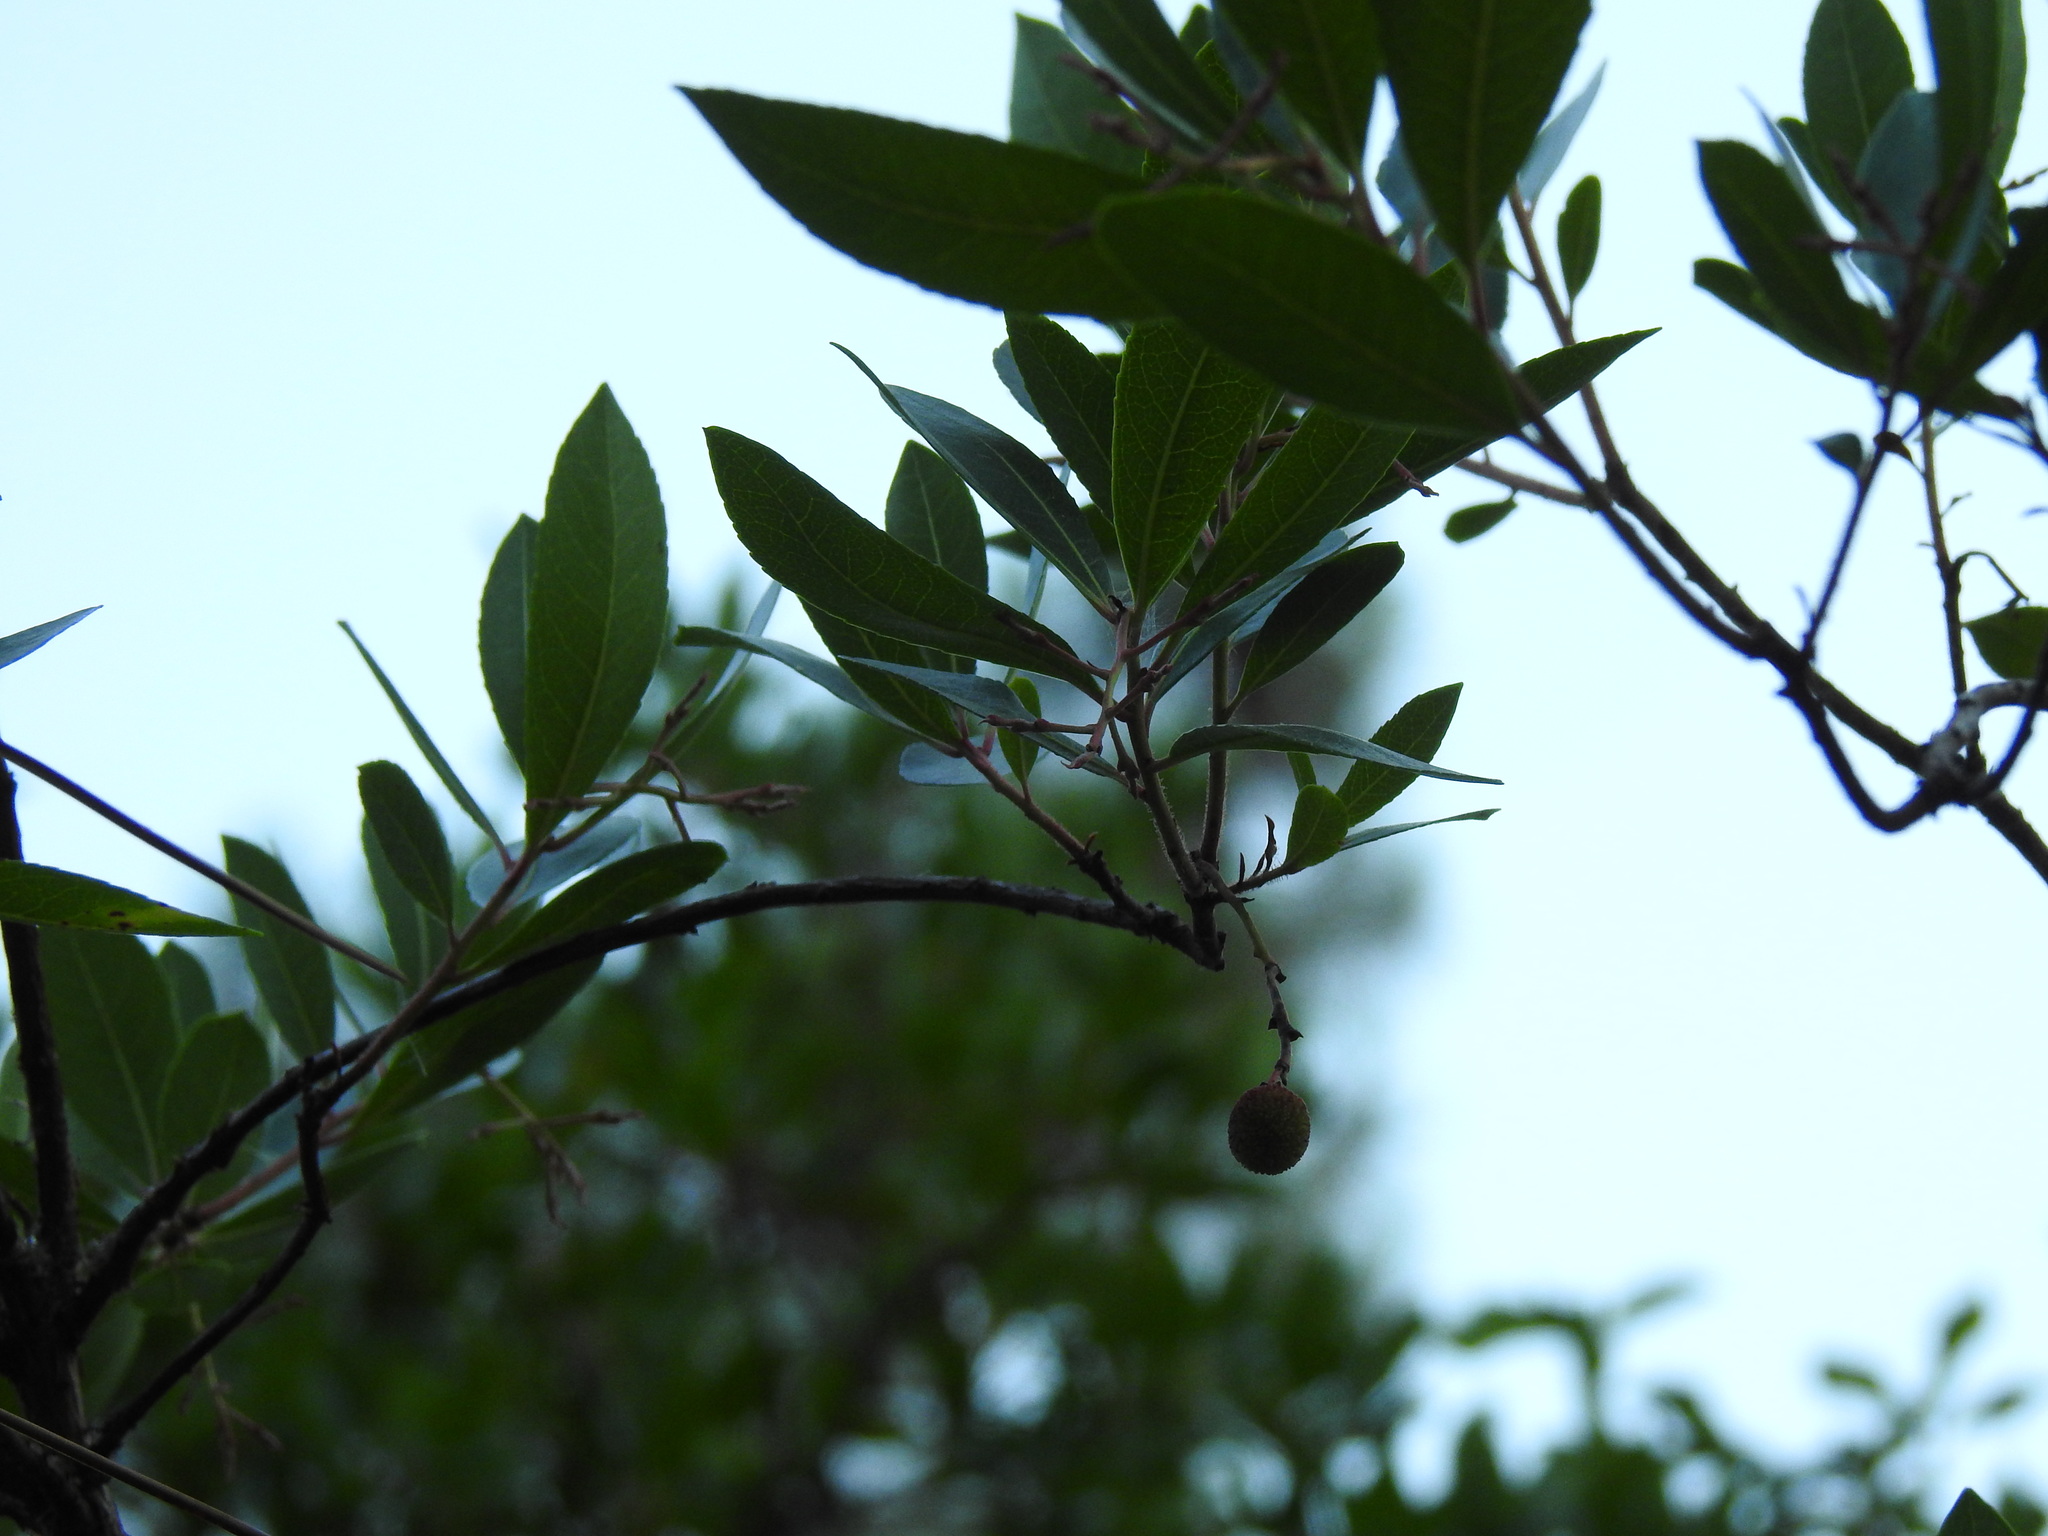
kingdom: Plantae
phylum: Tracheophyta
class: Magnoliopsida
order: Ericales
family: Ericaceae
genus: Arbutus
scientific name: Arbutus unedo
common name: Strawberry-tree
